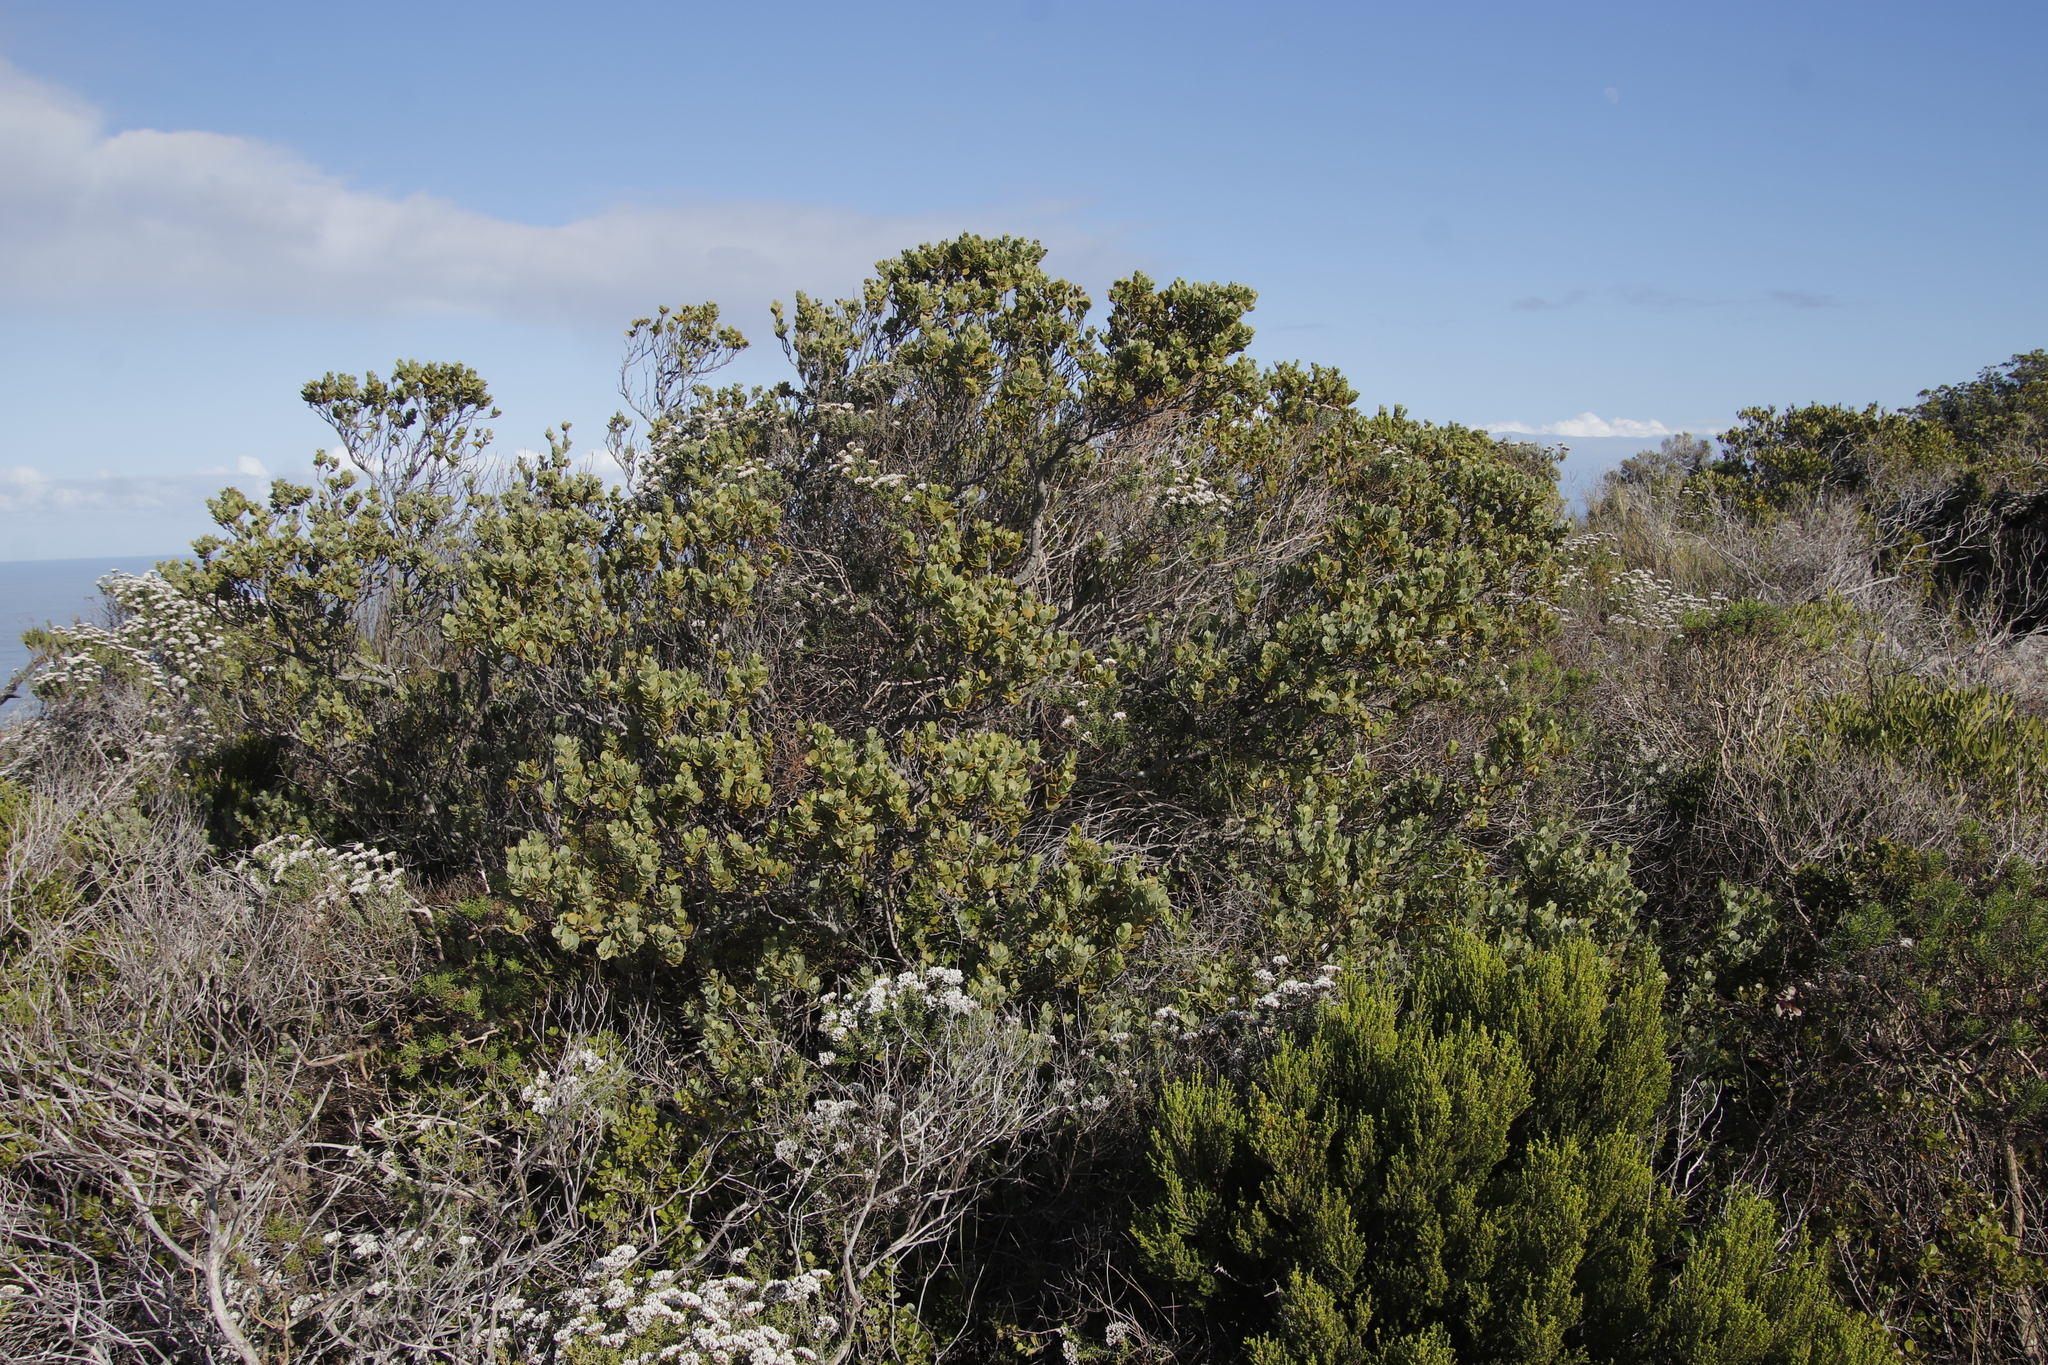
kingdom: Plantae
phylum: Tracheophyta
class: Magnoliopsida
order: Santalales
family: Santalaceae
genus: Osyris
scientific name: Osyris compressa
